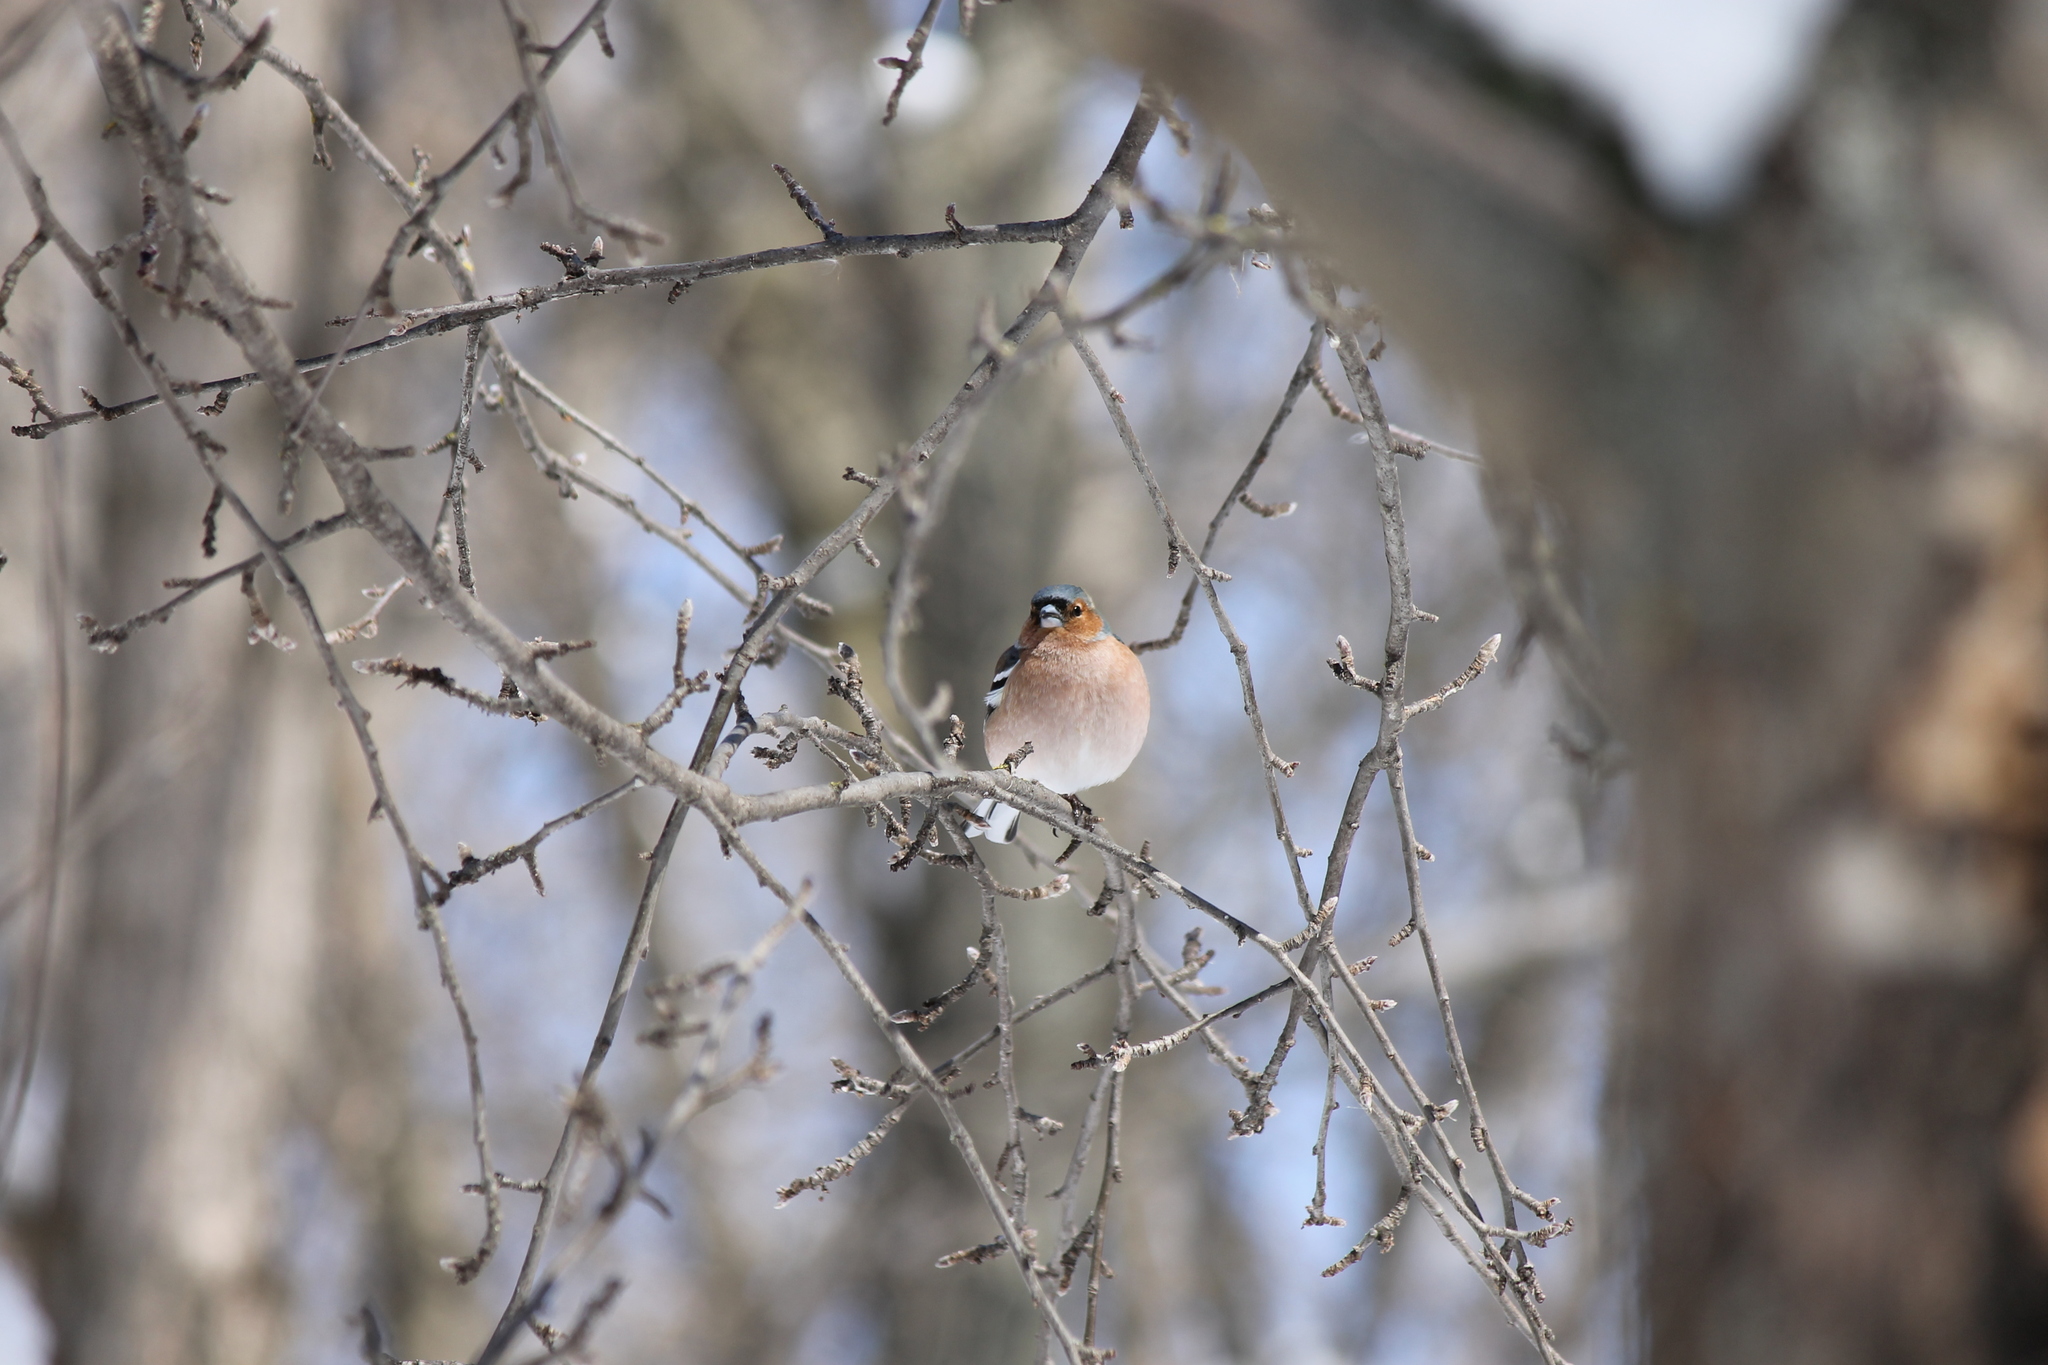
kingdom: Animalia
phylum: Chordata
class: Aves
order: Passeriformes
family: Fringillidae
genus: Fringilla
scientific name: Fringilla coelebs
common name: Common chaffinch
